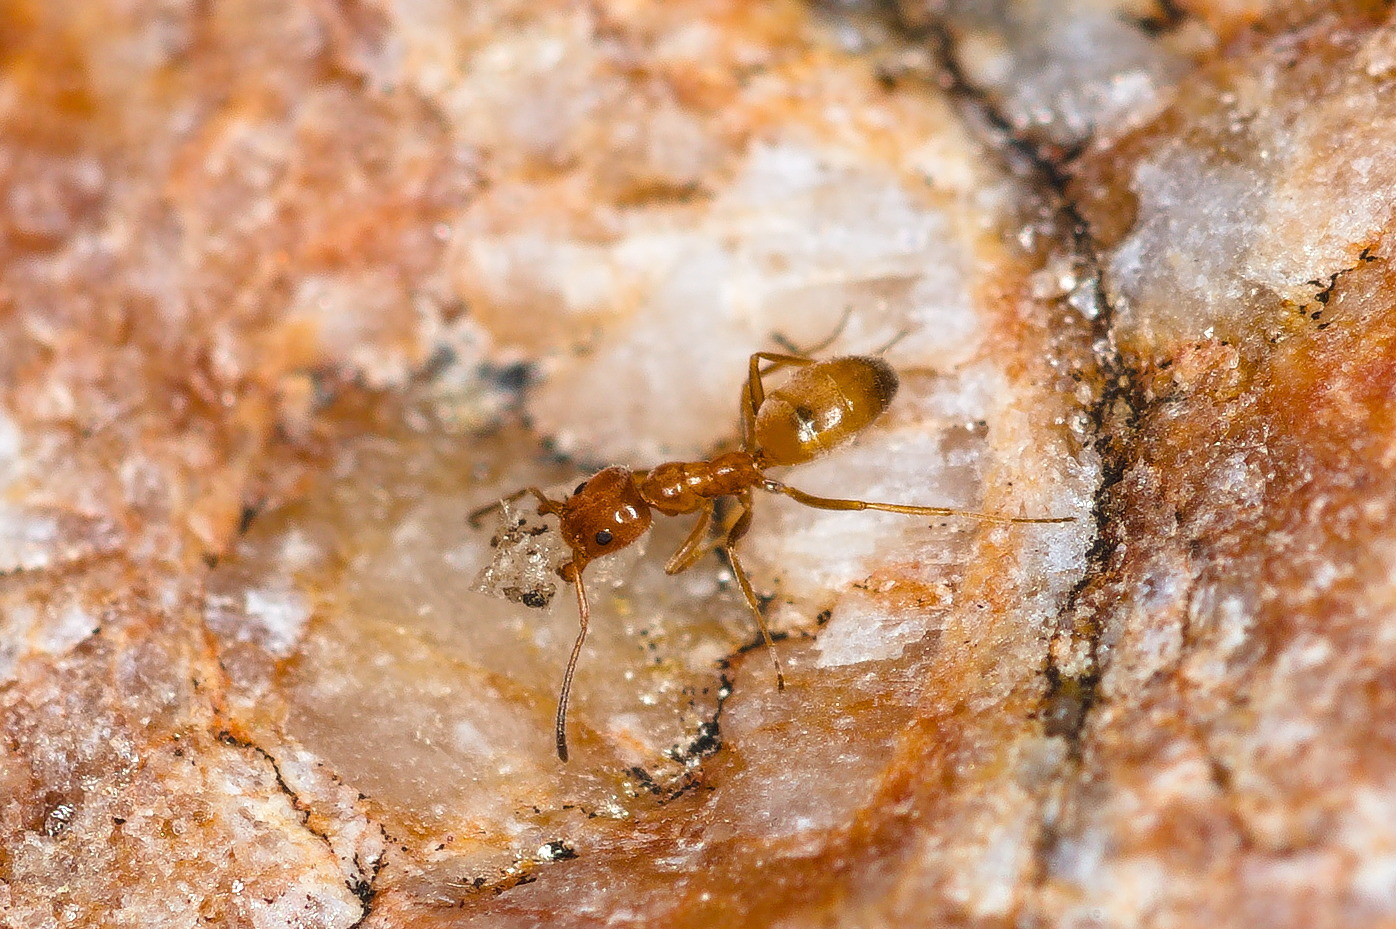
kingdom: Animalia
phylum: Arthropoda
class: Insecta
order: Hymenoptera
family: Formicidae
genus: Forelius
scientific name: Forelius mccooki
